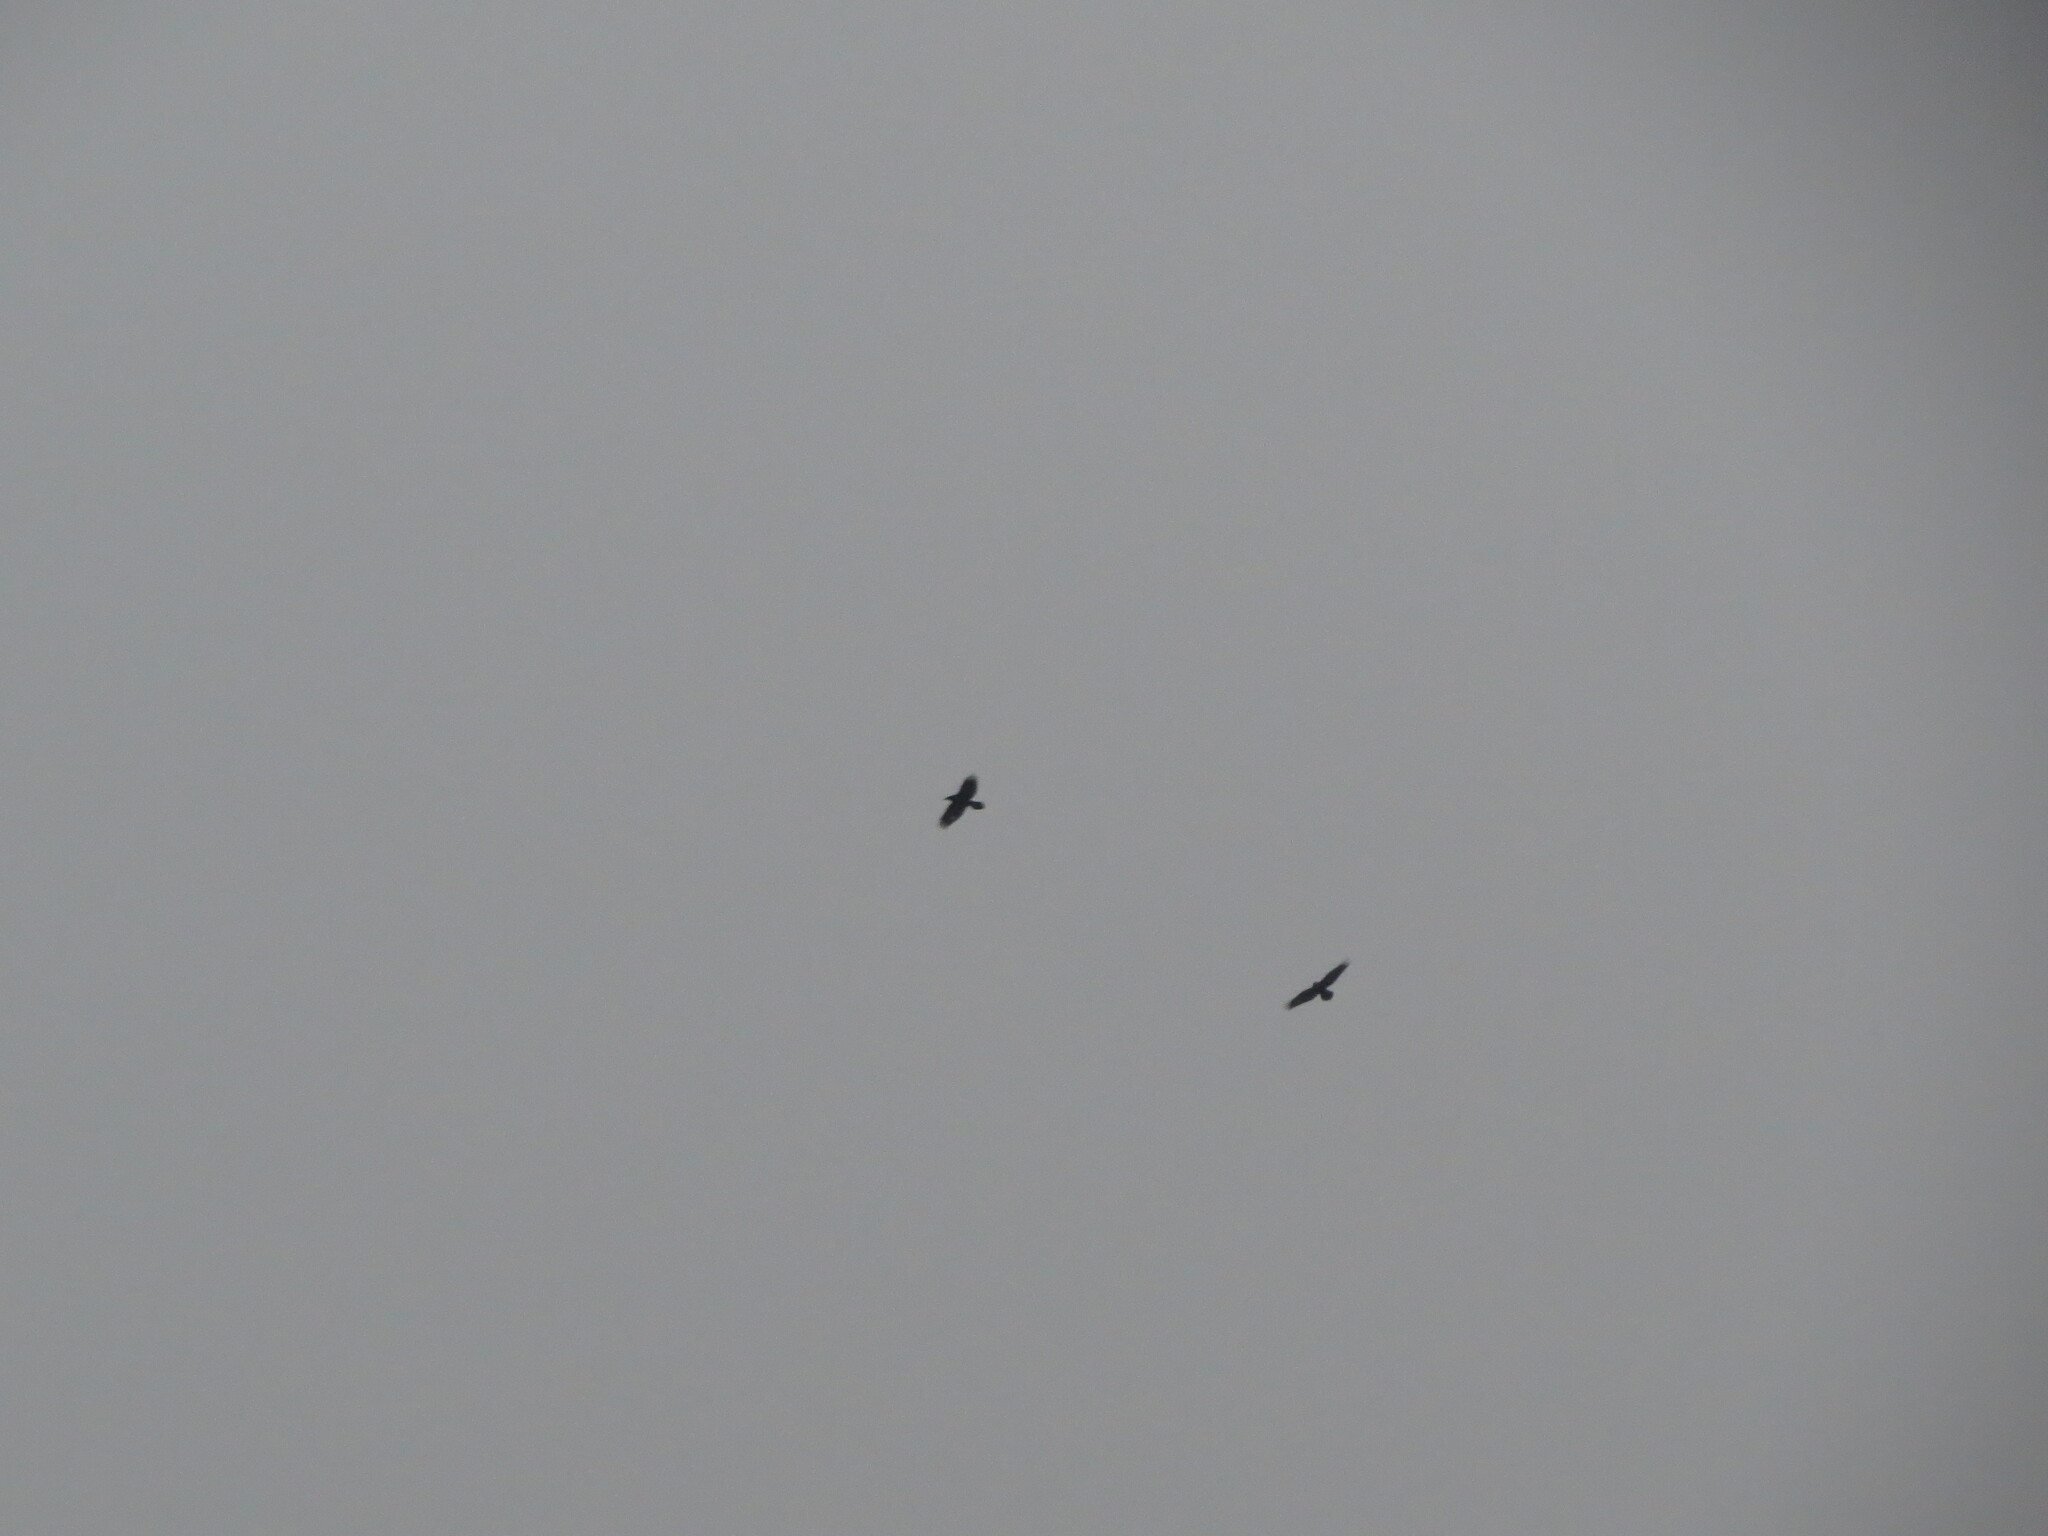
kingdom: Animalia
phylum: Chordata
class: Aves
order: Passeriformes
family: Corvidae
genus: Corvus
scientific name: Corvus corax
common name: Common raven
